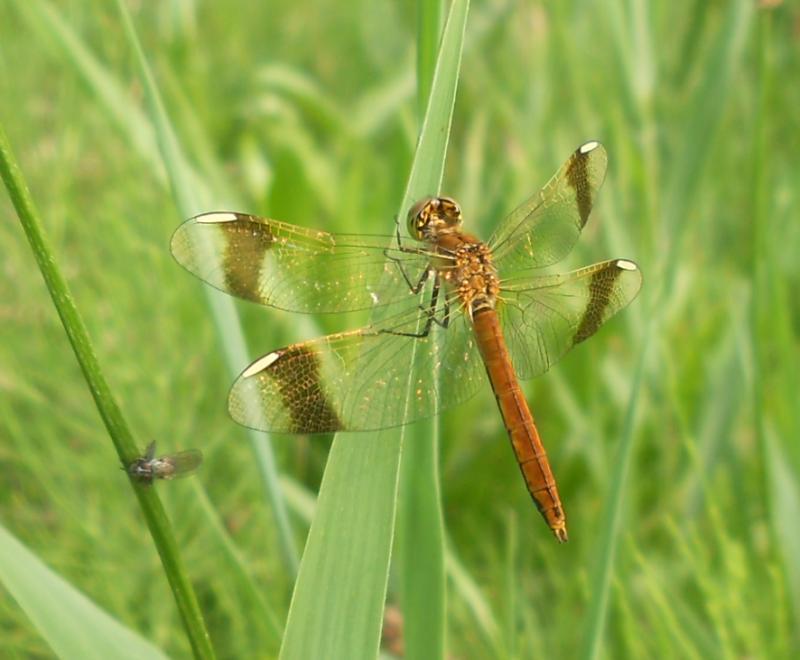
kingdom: Animalia
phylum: Arthropoda
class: Insecta
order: Odonata
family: Libellulidae
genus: Sympetrum
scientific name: Sympetrum pedemontanum
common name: Banded darter
